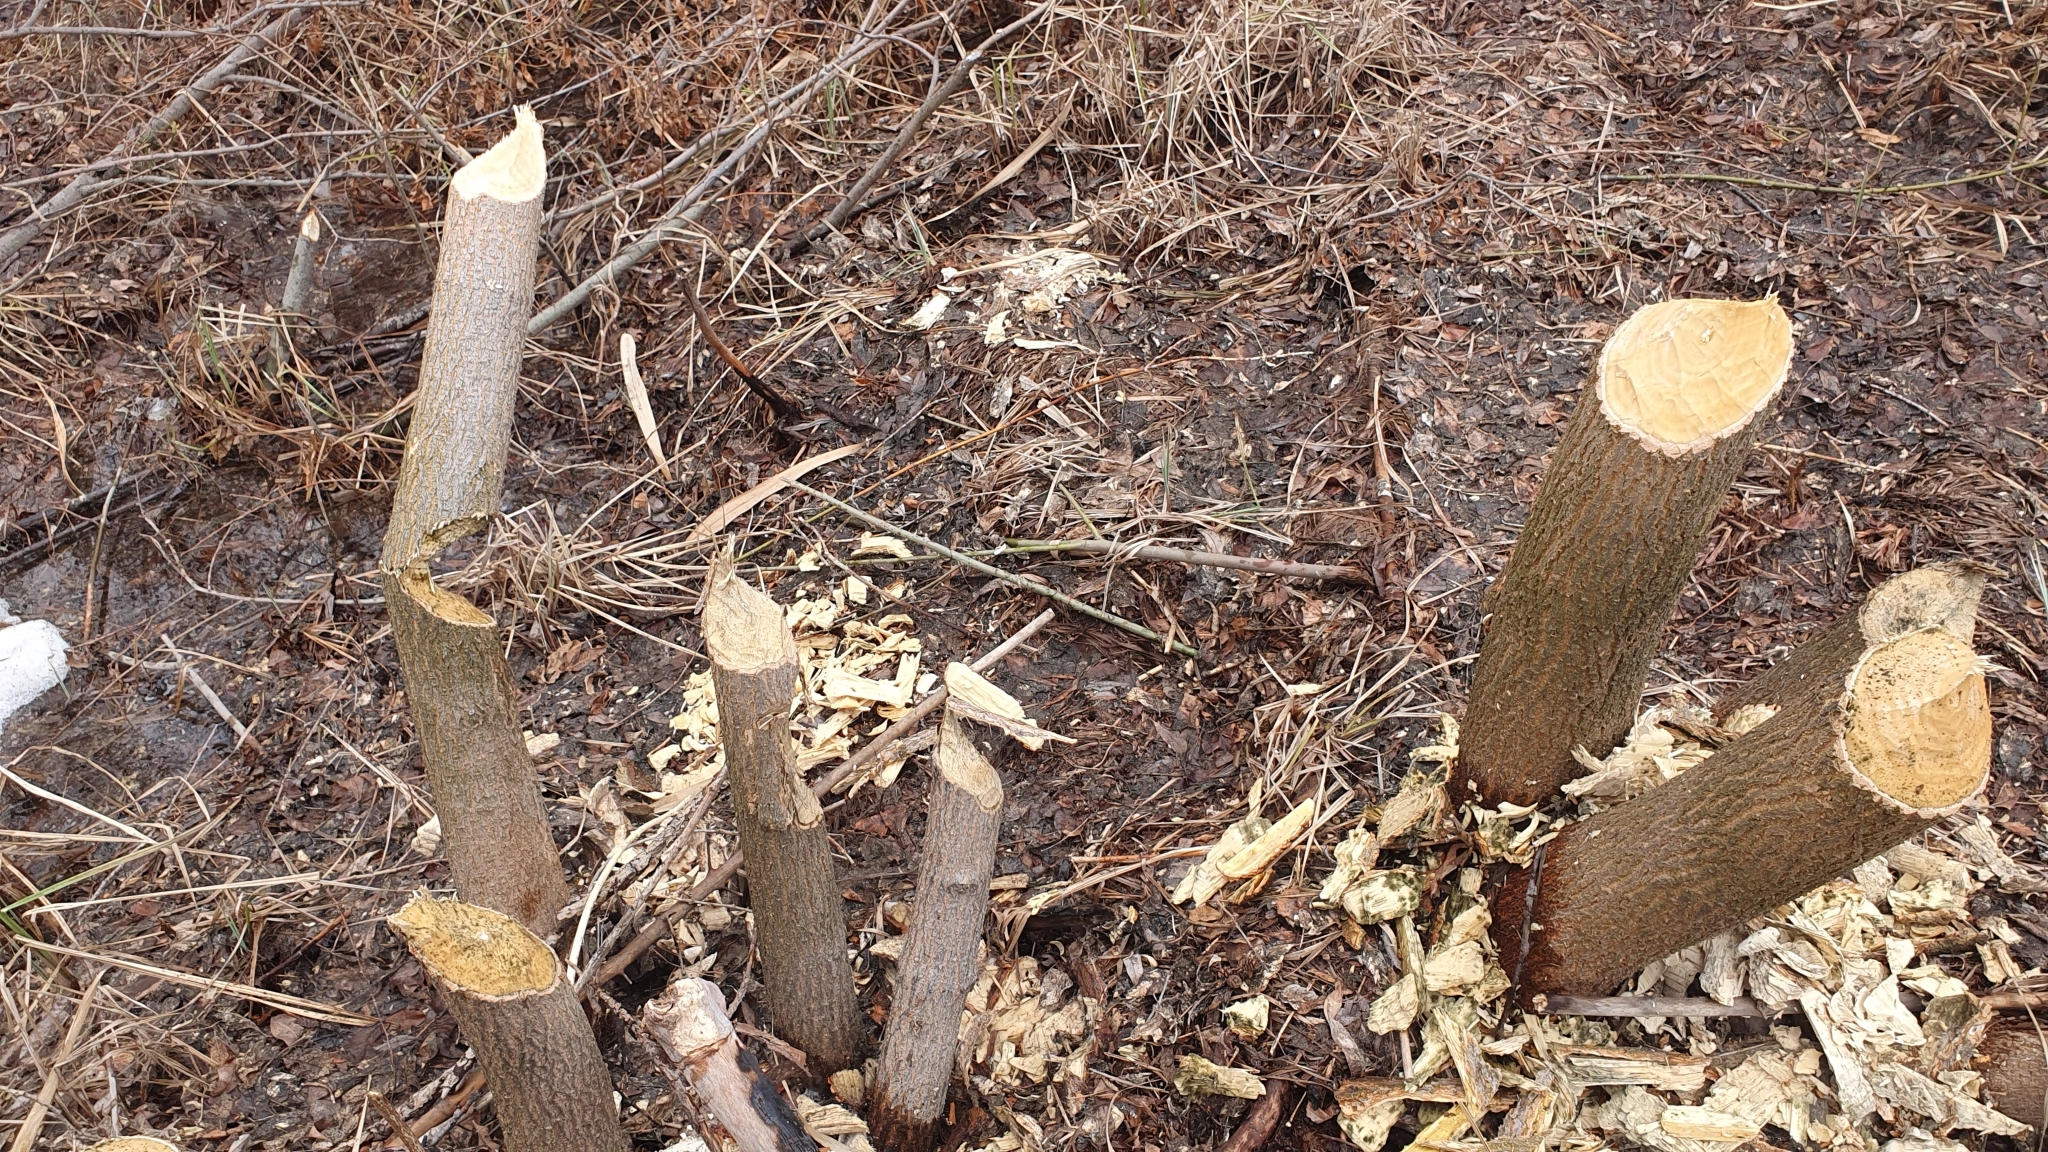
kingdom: Animalia
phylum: Chordata
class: Mammalia
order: Rodentia
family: Castoridae
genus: Castor
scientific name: Castor fiber
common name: Eurasian beaver
